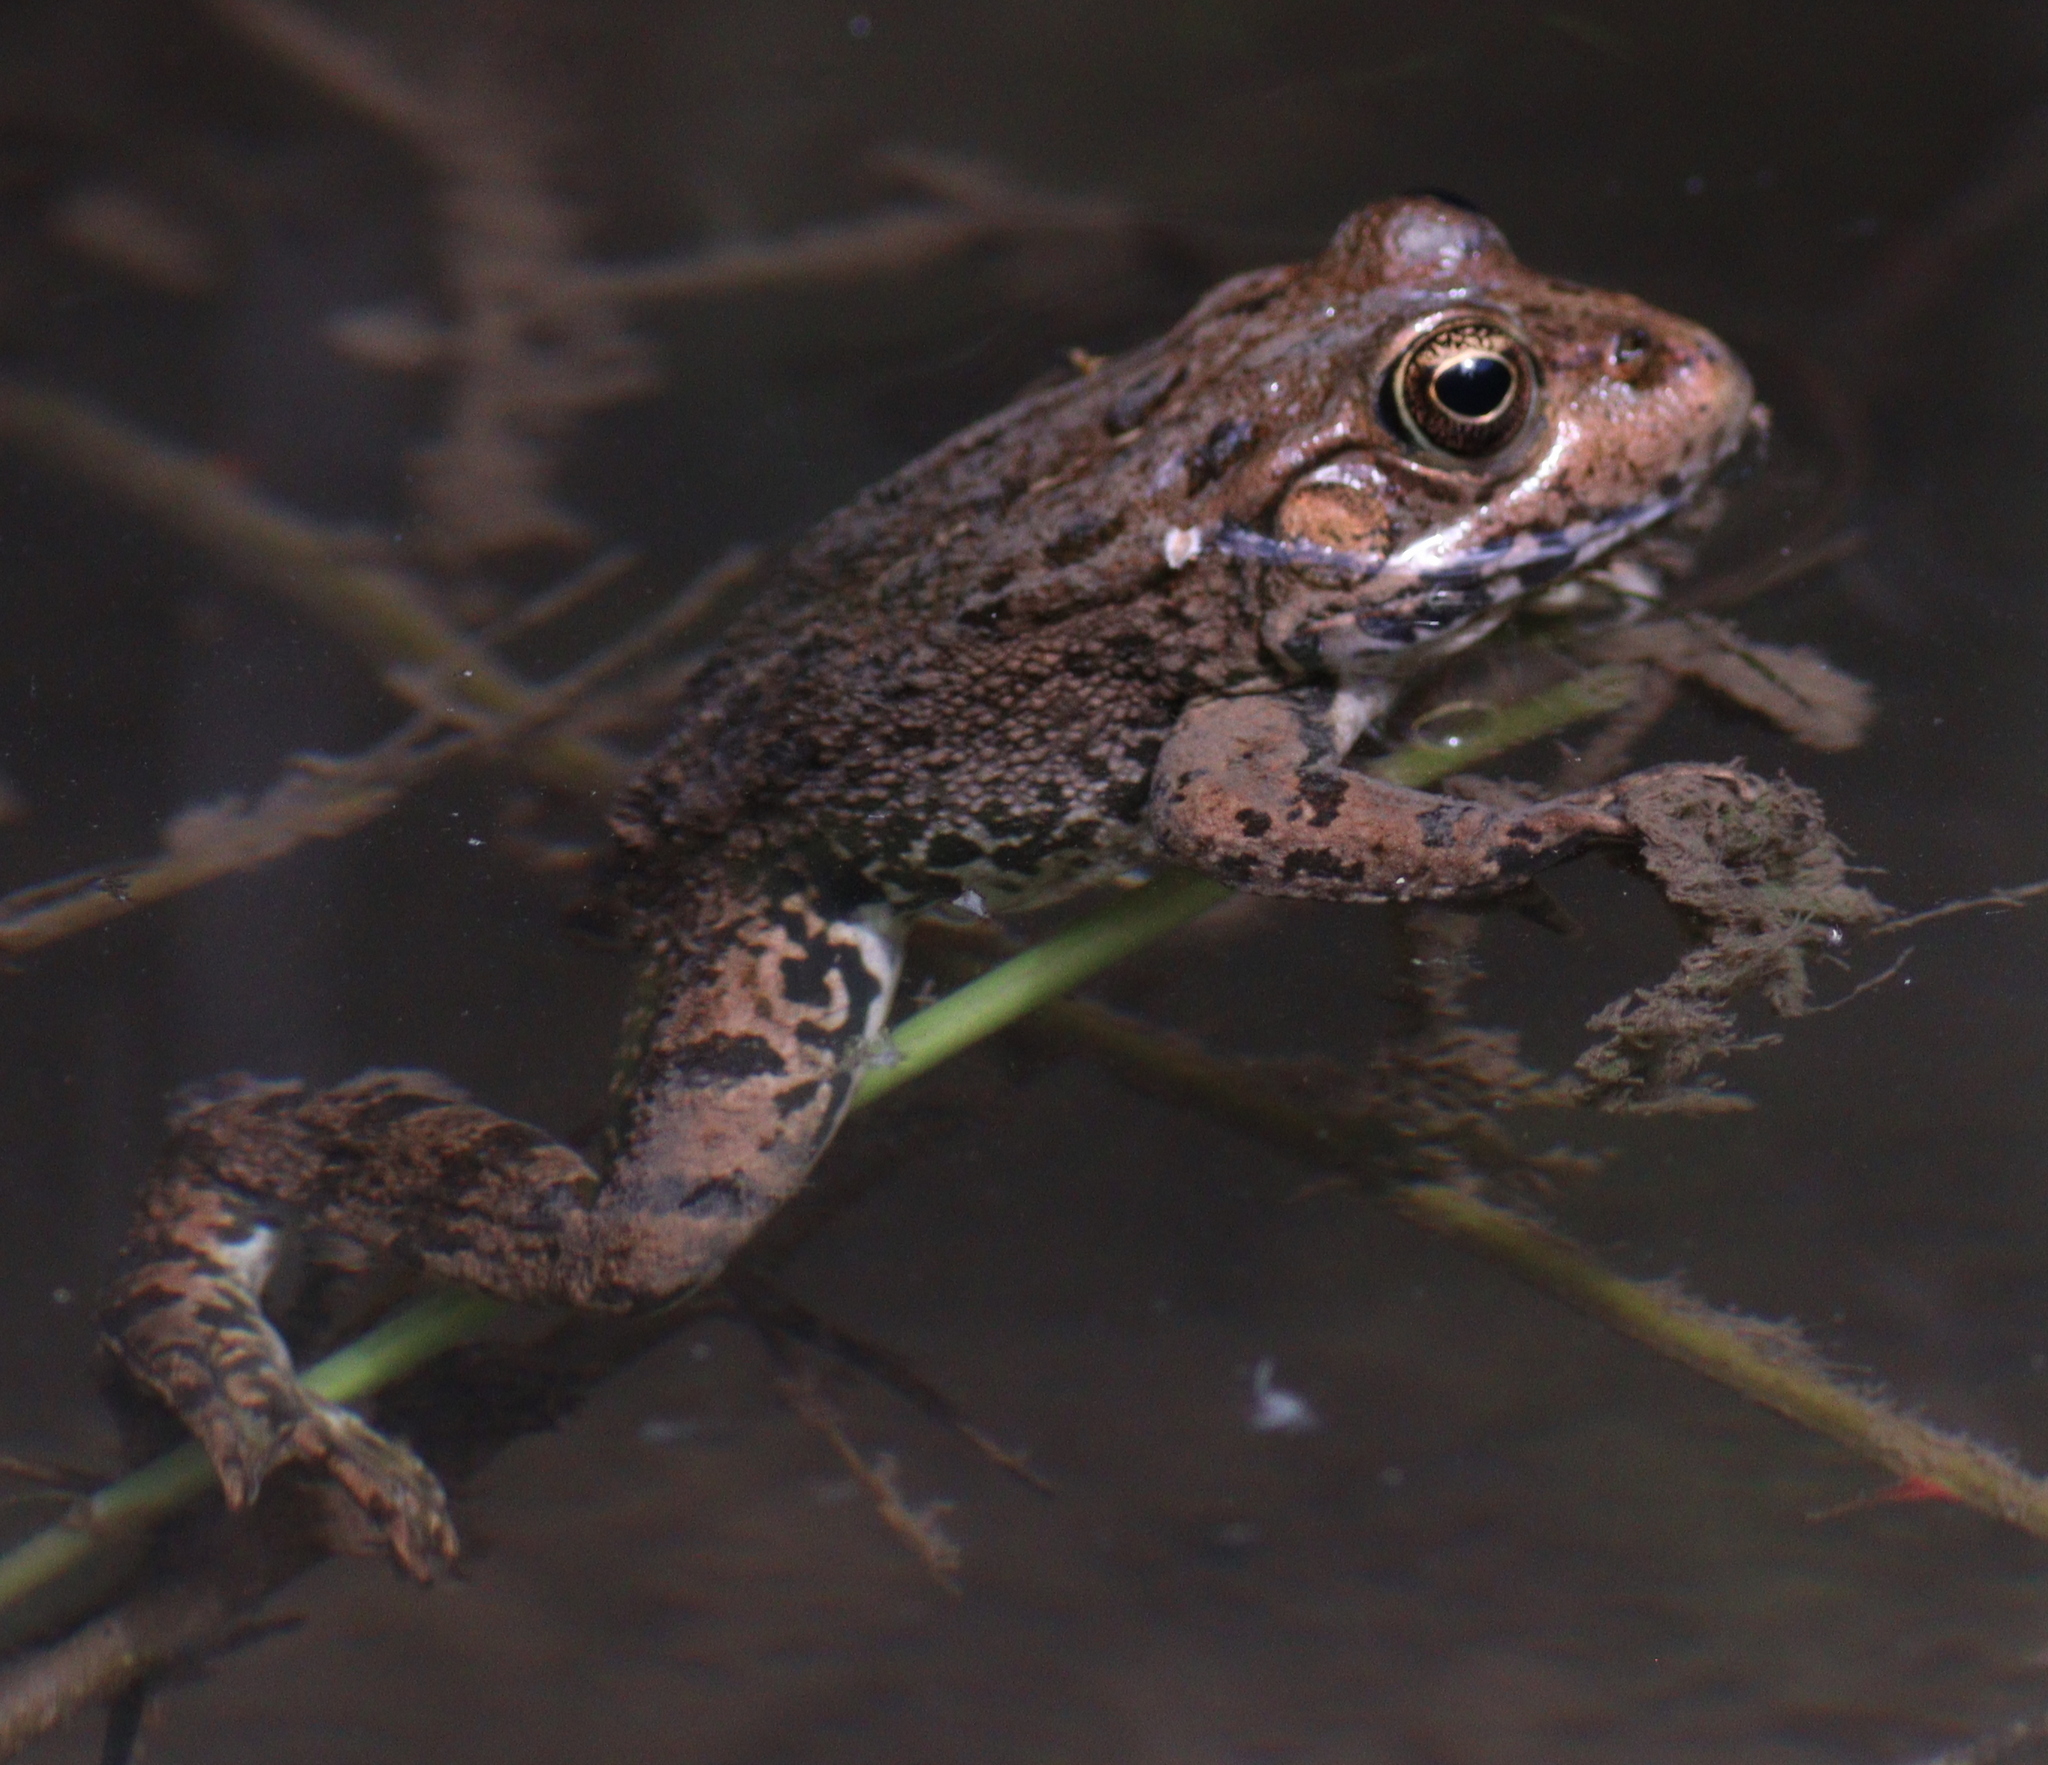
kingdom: Animalia
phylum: Chordata
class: Amphibia
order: Anura
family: Ranidae
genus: Pelophylax
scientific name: Pelophylax ridibundus
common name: Marsh frog
